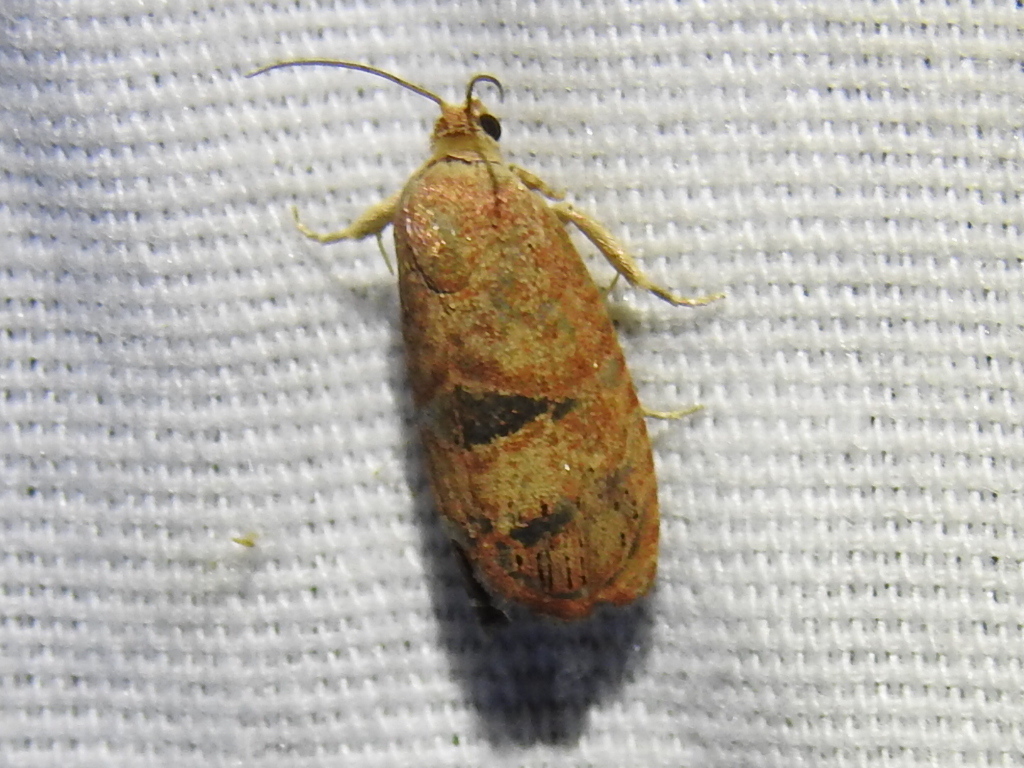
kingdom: Animalia
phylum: Arthropoda
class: Insecta
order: Lepidoptera
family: Tortricidae
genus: Cydia
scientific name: Cydia latiferreana
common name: Filbertworm moth
